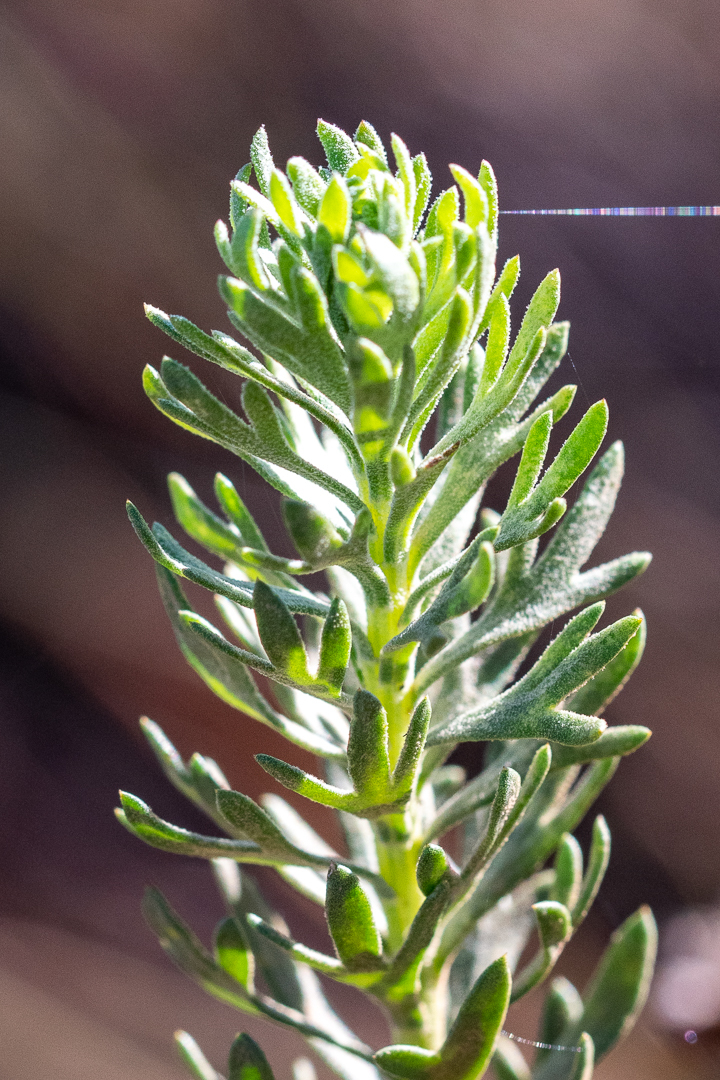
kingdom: Plantae
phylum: Tracheophyta
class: Magnoliopsida
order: Asterales
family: Asteraceae
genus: Athanasia
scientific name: Athanasia trifurcata
